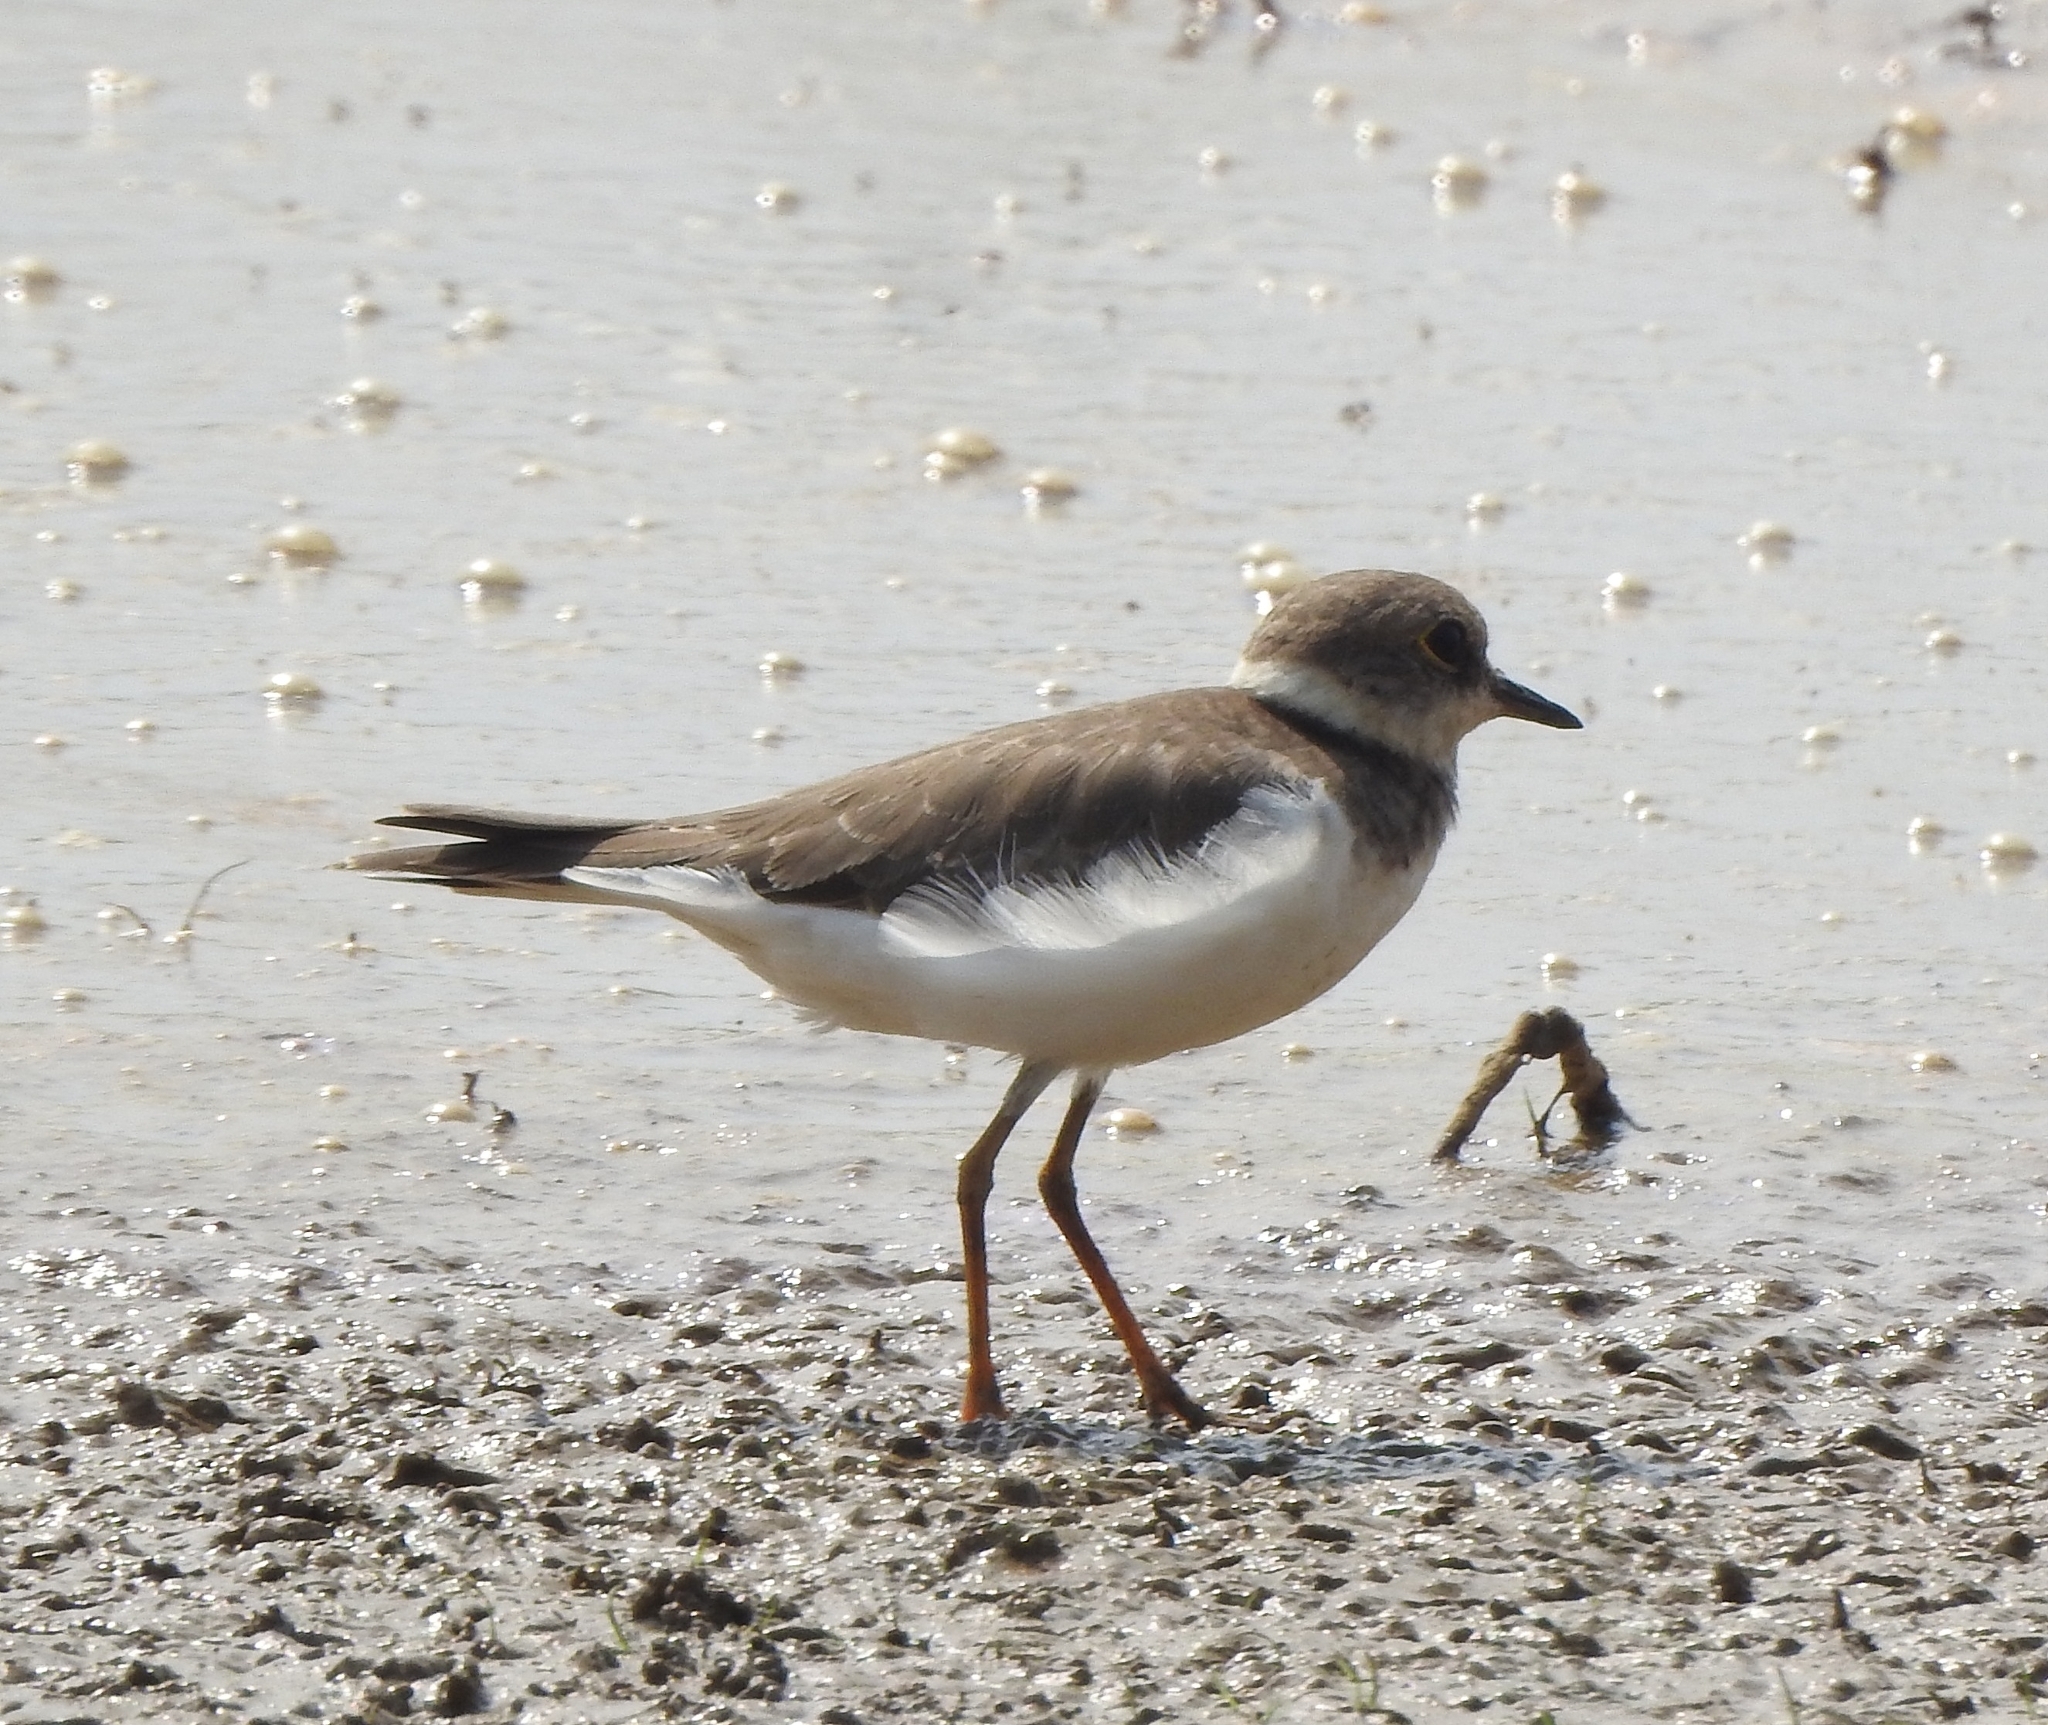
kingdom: Animalia
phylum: Chordata
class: Aves
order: Charadriiformes
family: Charadriidae
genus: Charadrius
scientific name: Charadrius dubius
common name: Little ringed plover
